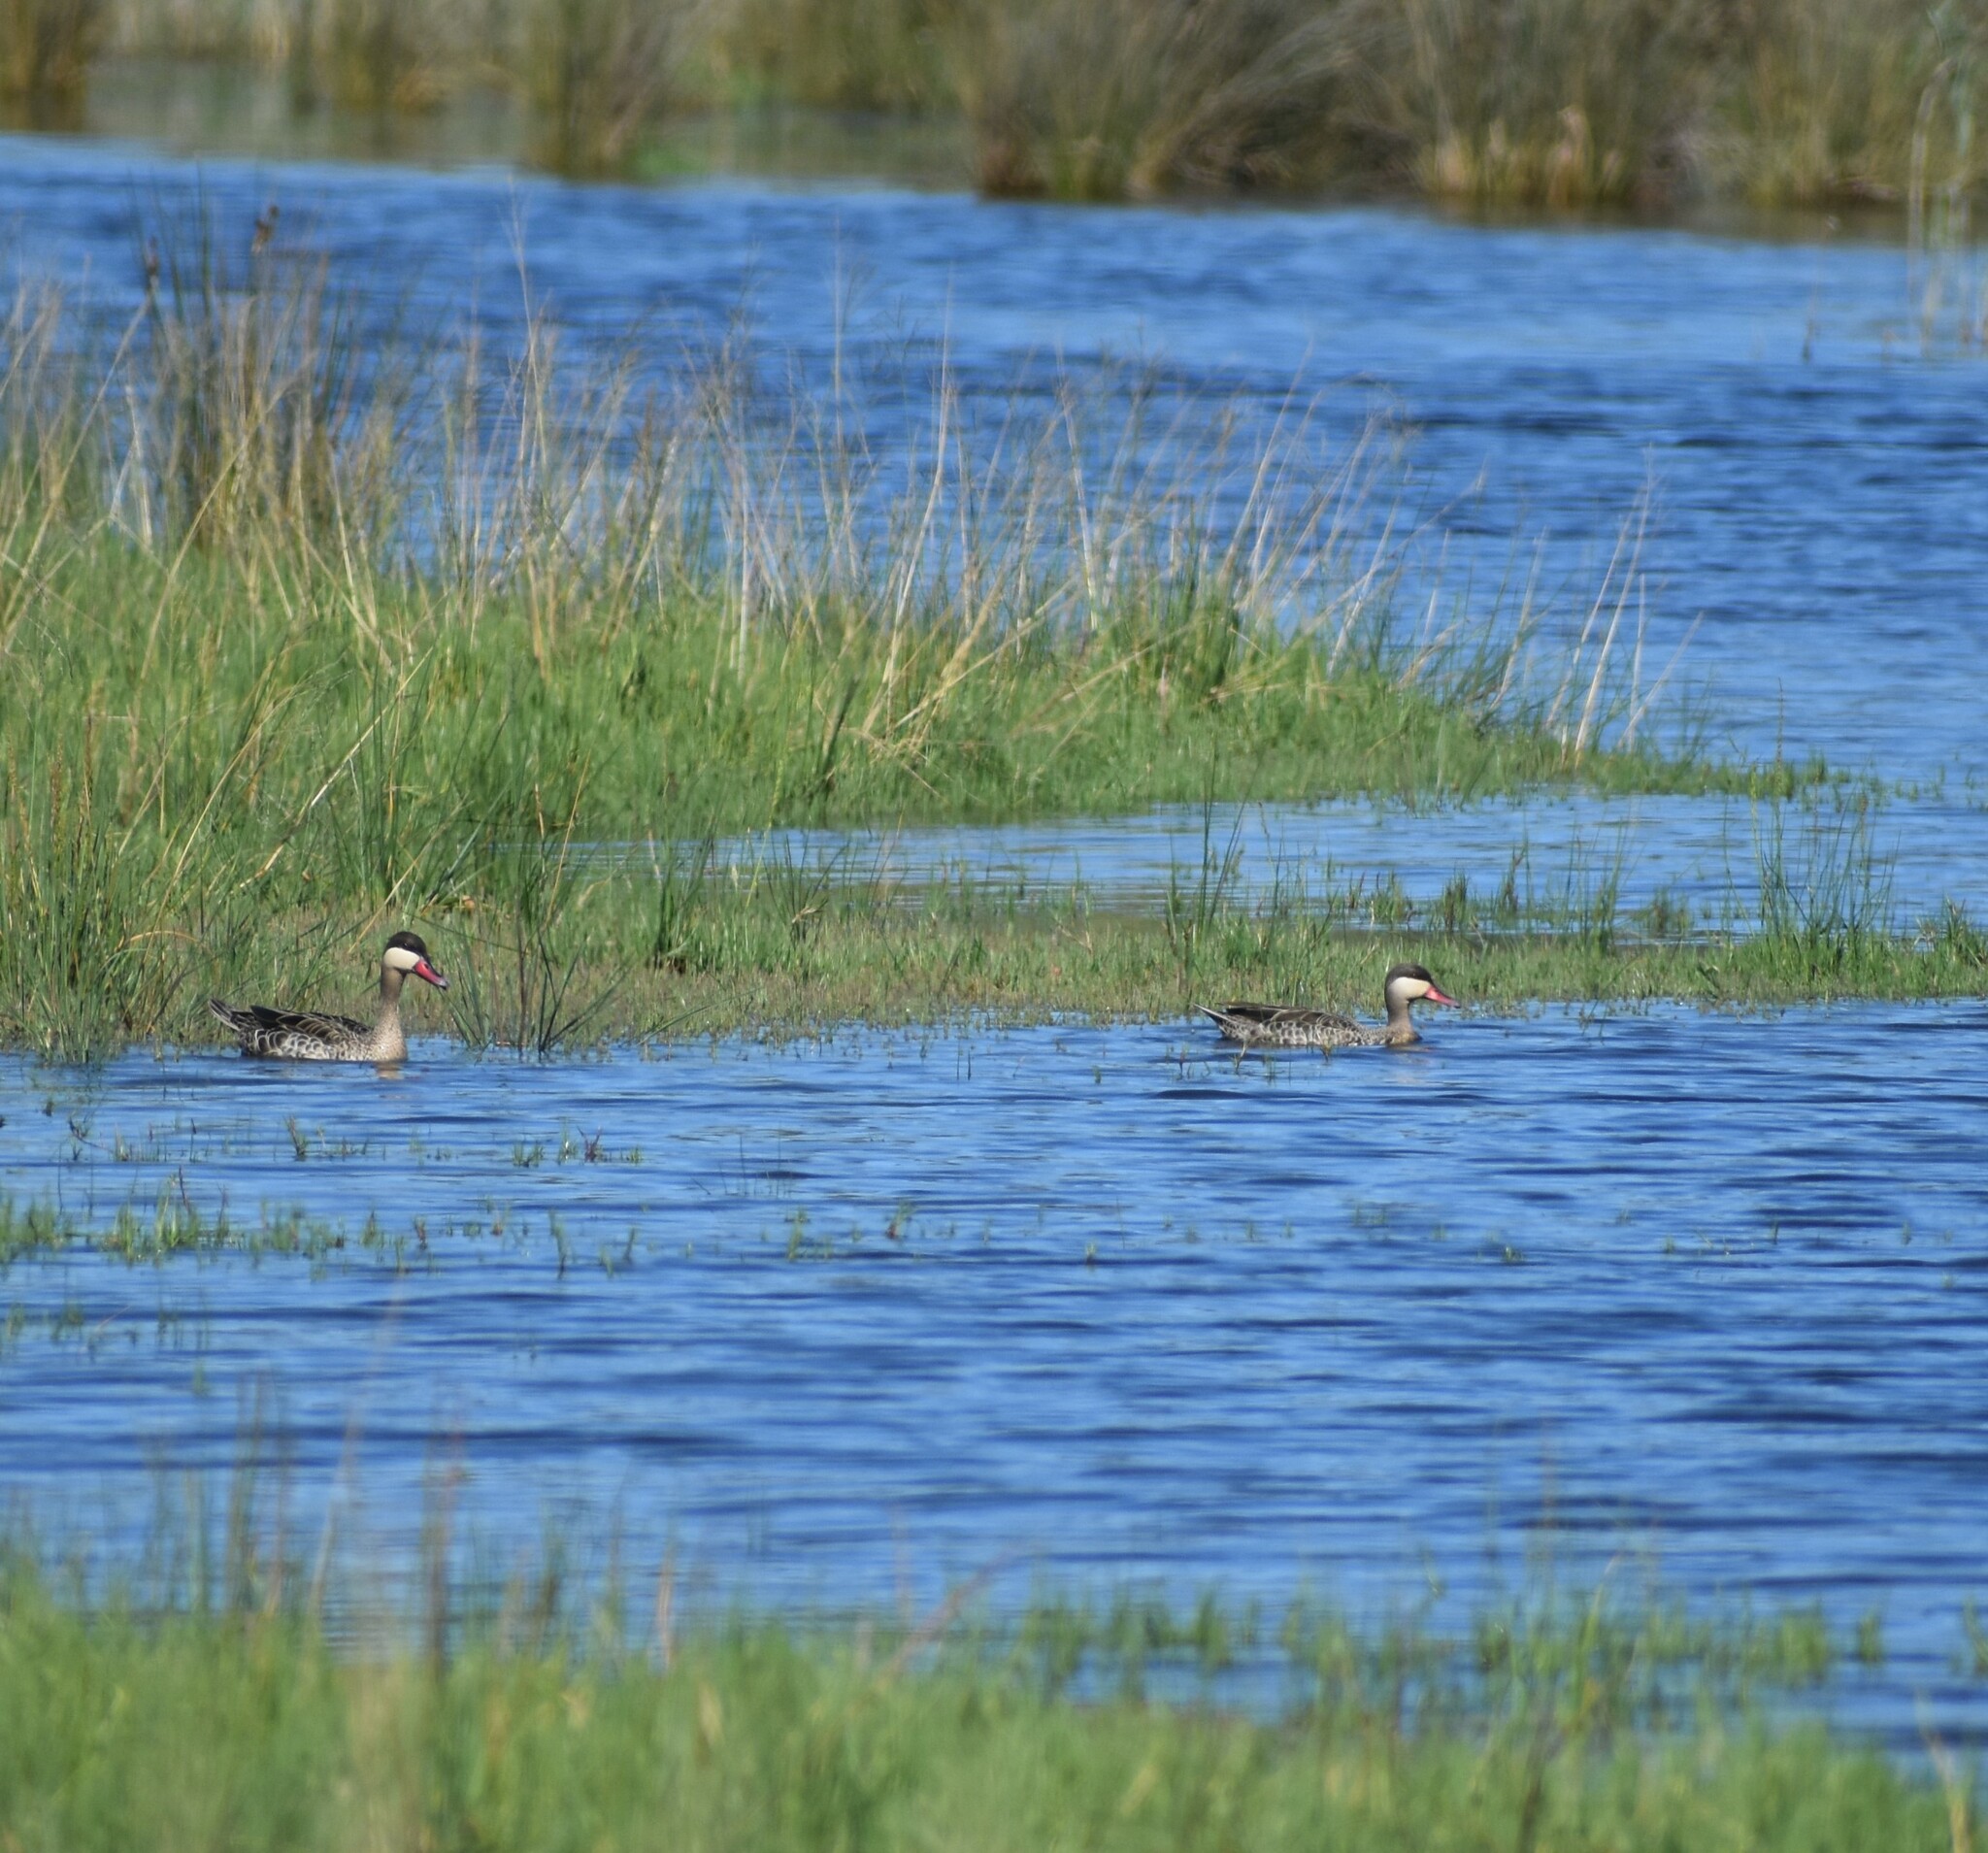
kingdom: Animalia
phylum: Chordata
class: Aves
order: Anseriformes
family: Anatidae
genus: Anas
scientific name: Anas erythrorhyncha
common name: Red-billed teal
